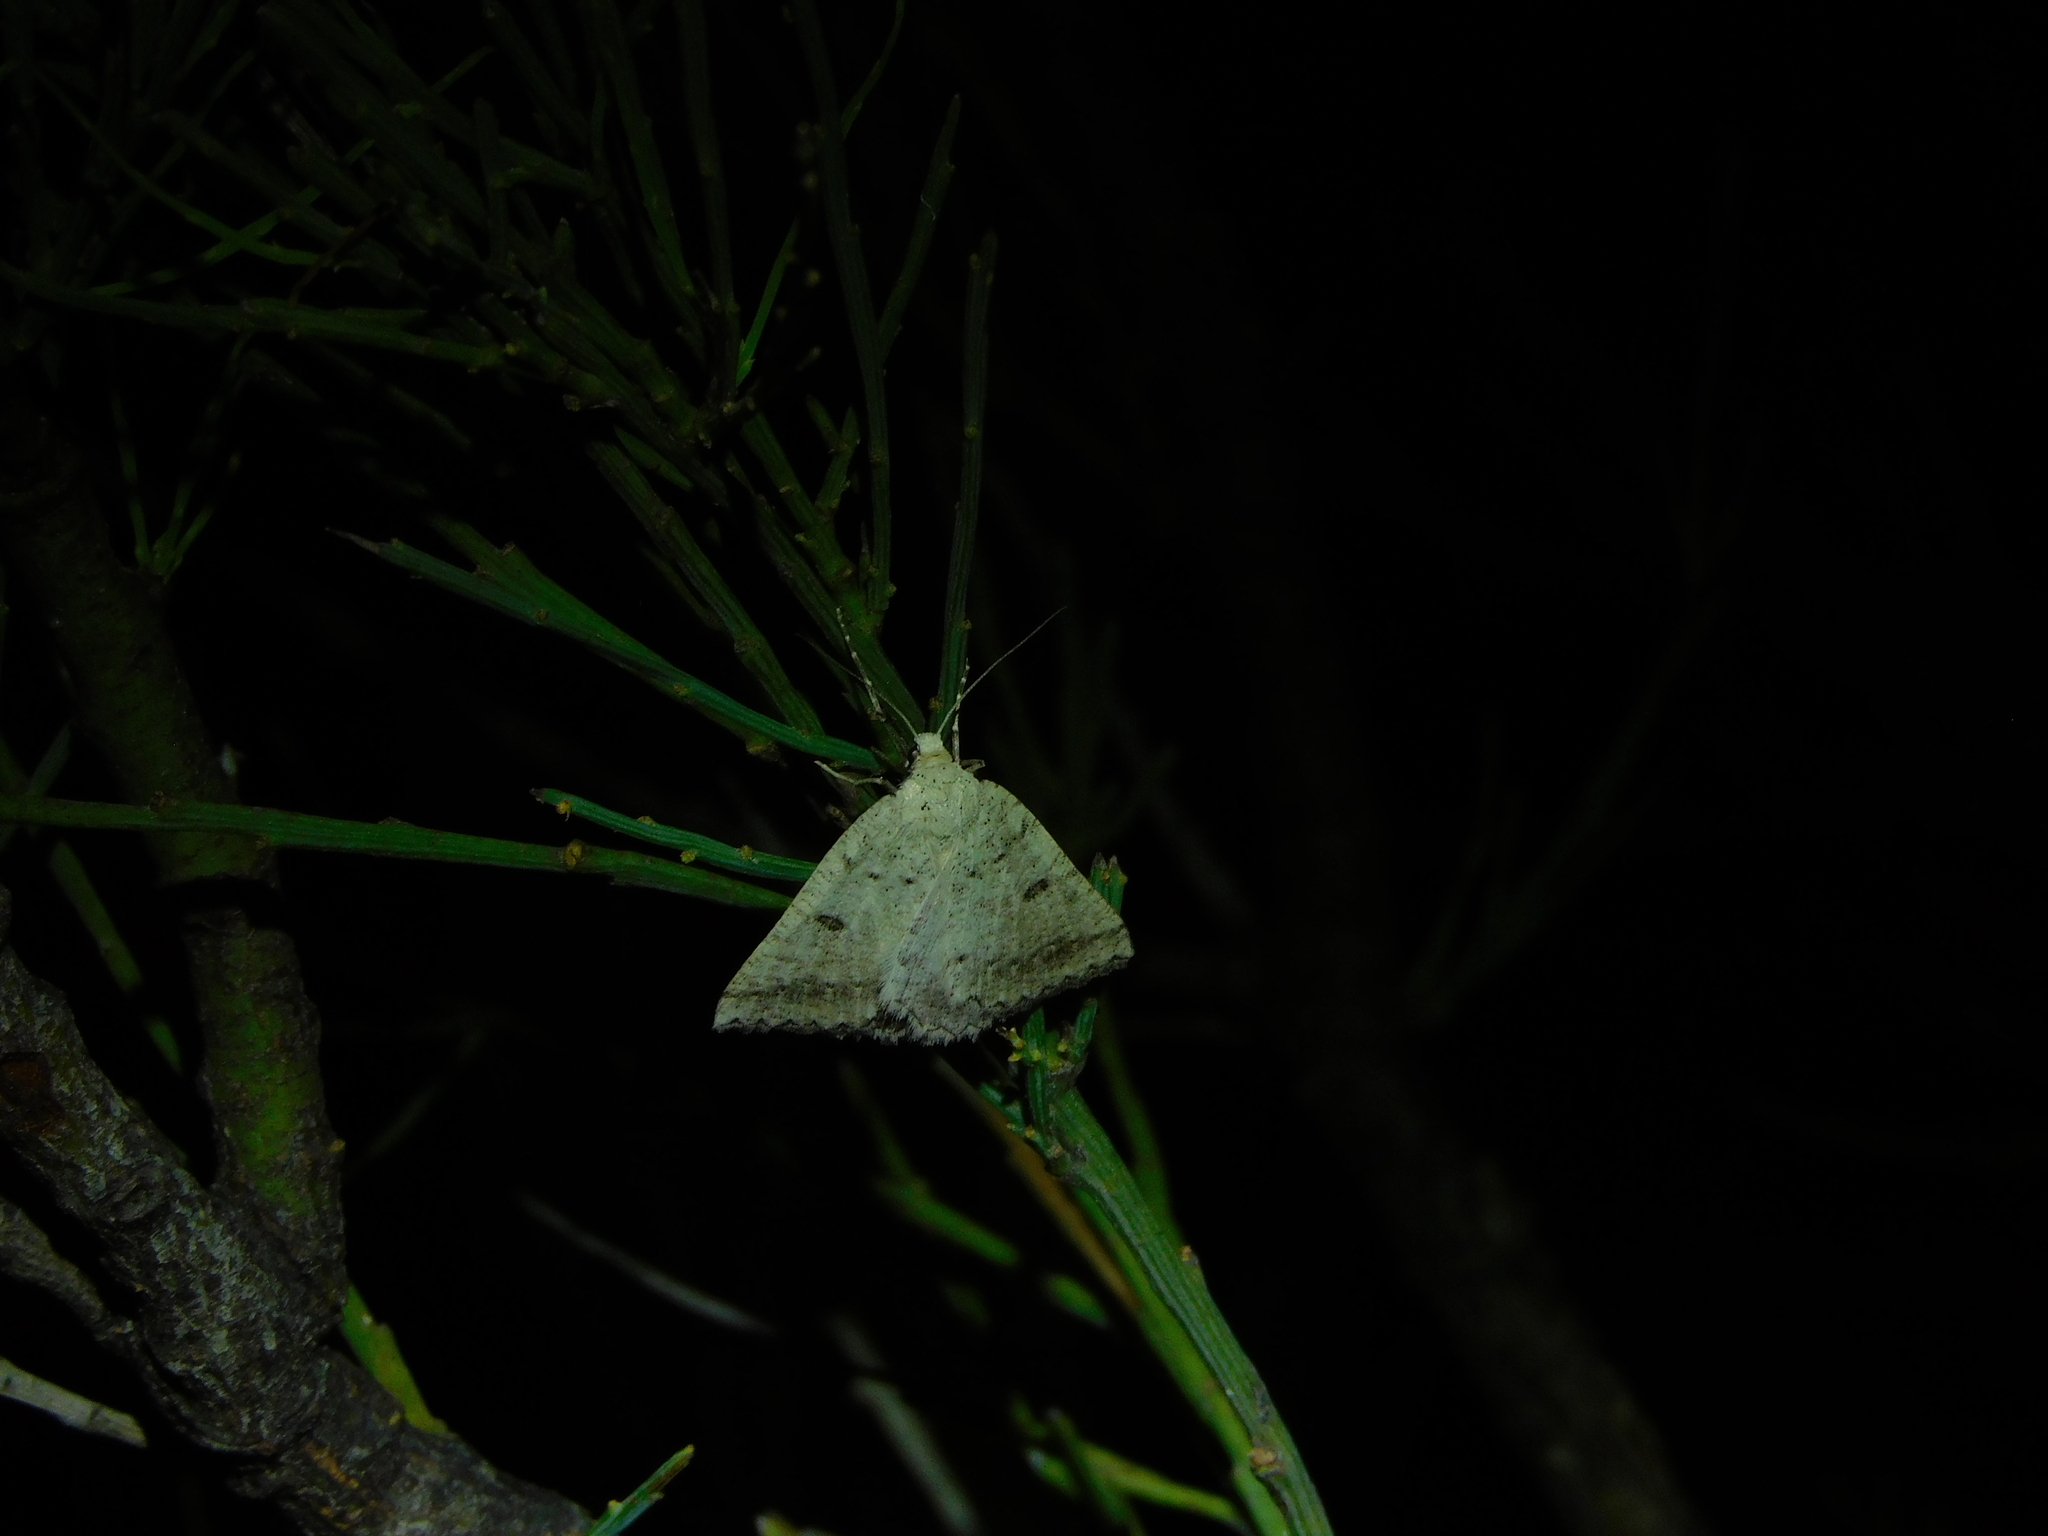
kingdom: Animalia
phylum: Arthropoda
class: Insecta
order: Lepidoptera
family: Geometridae
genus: Amelora
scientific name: Amelora zophopasta
